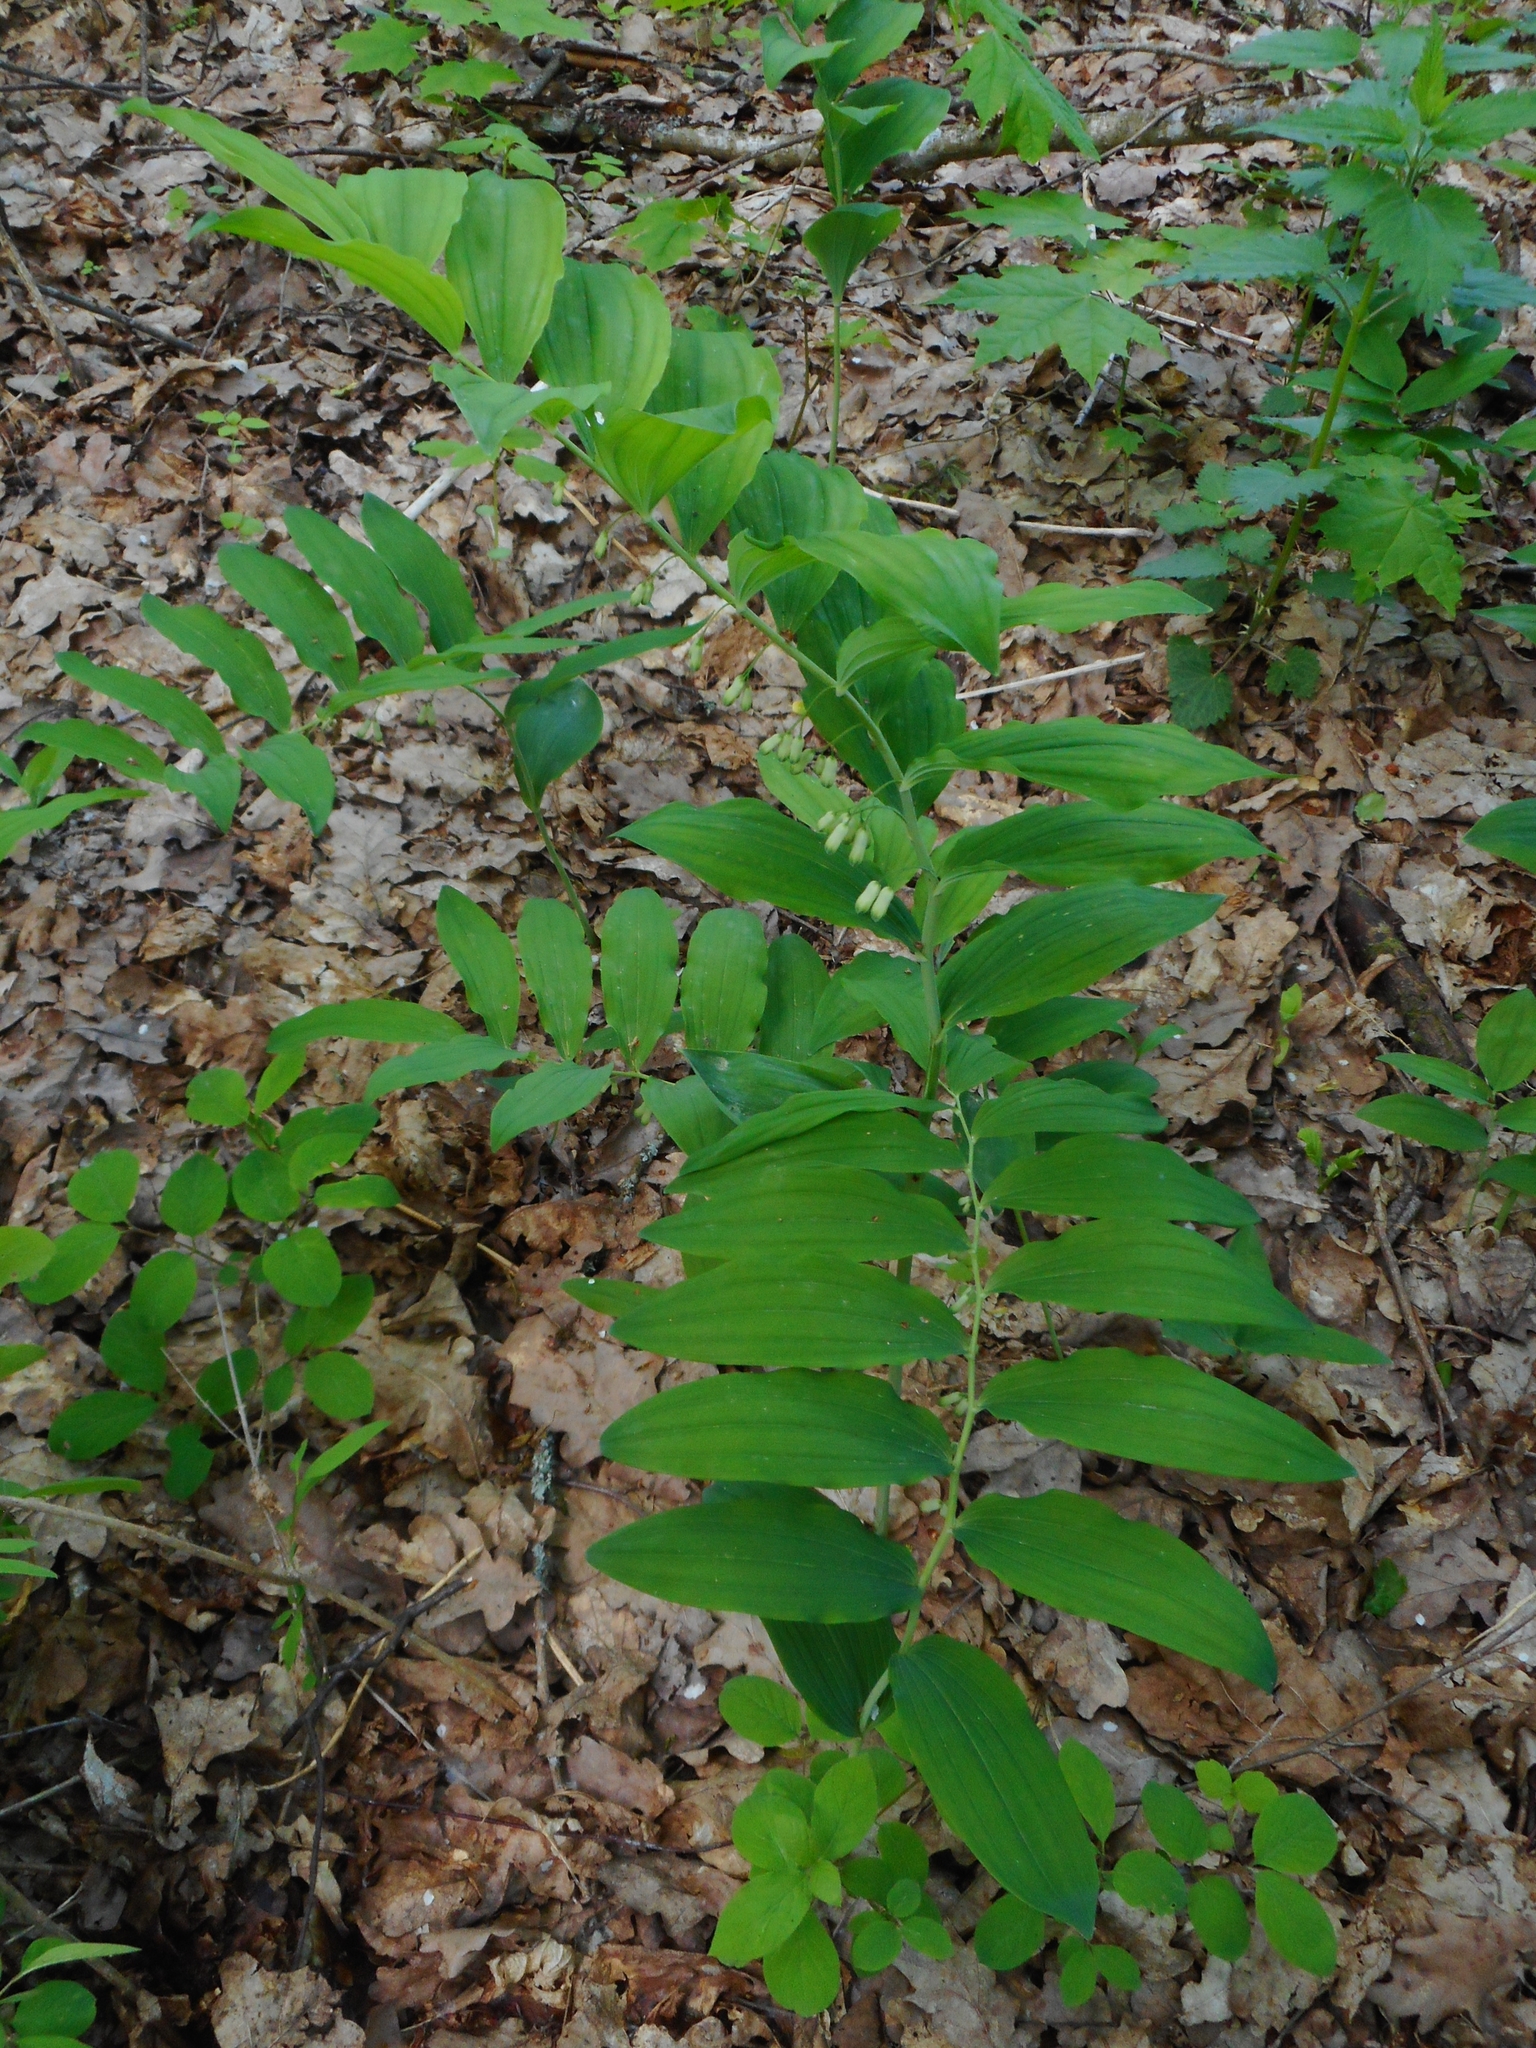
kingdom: Plantae
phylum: Tracheophyta
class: Liliopsida
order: Asparagales
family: Asparagaceae
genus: Polygonatum
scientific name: Polygonatum multiflorum
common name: Solomon's-seal
